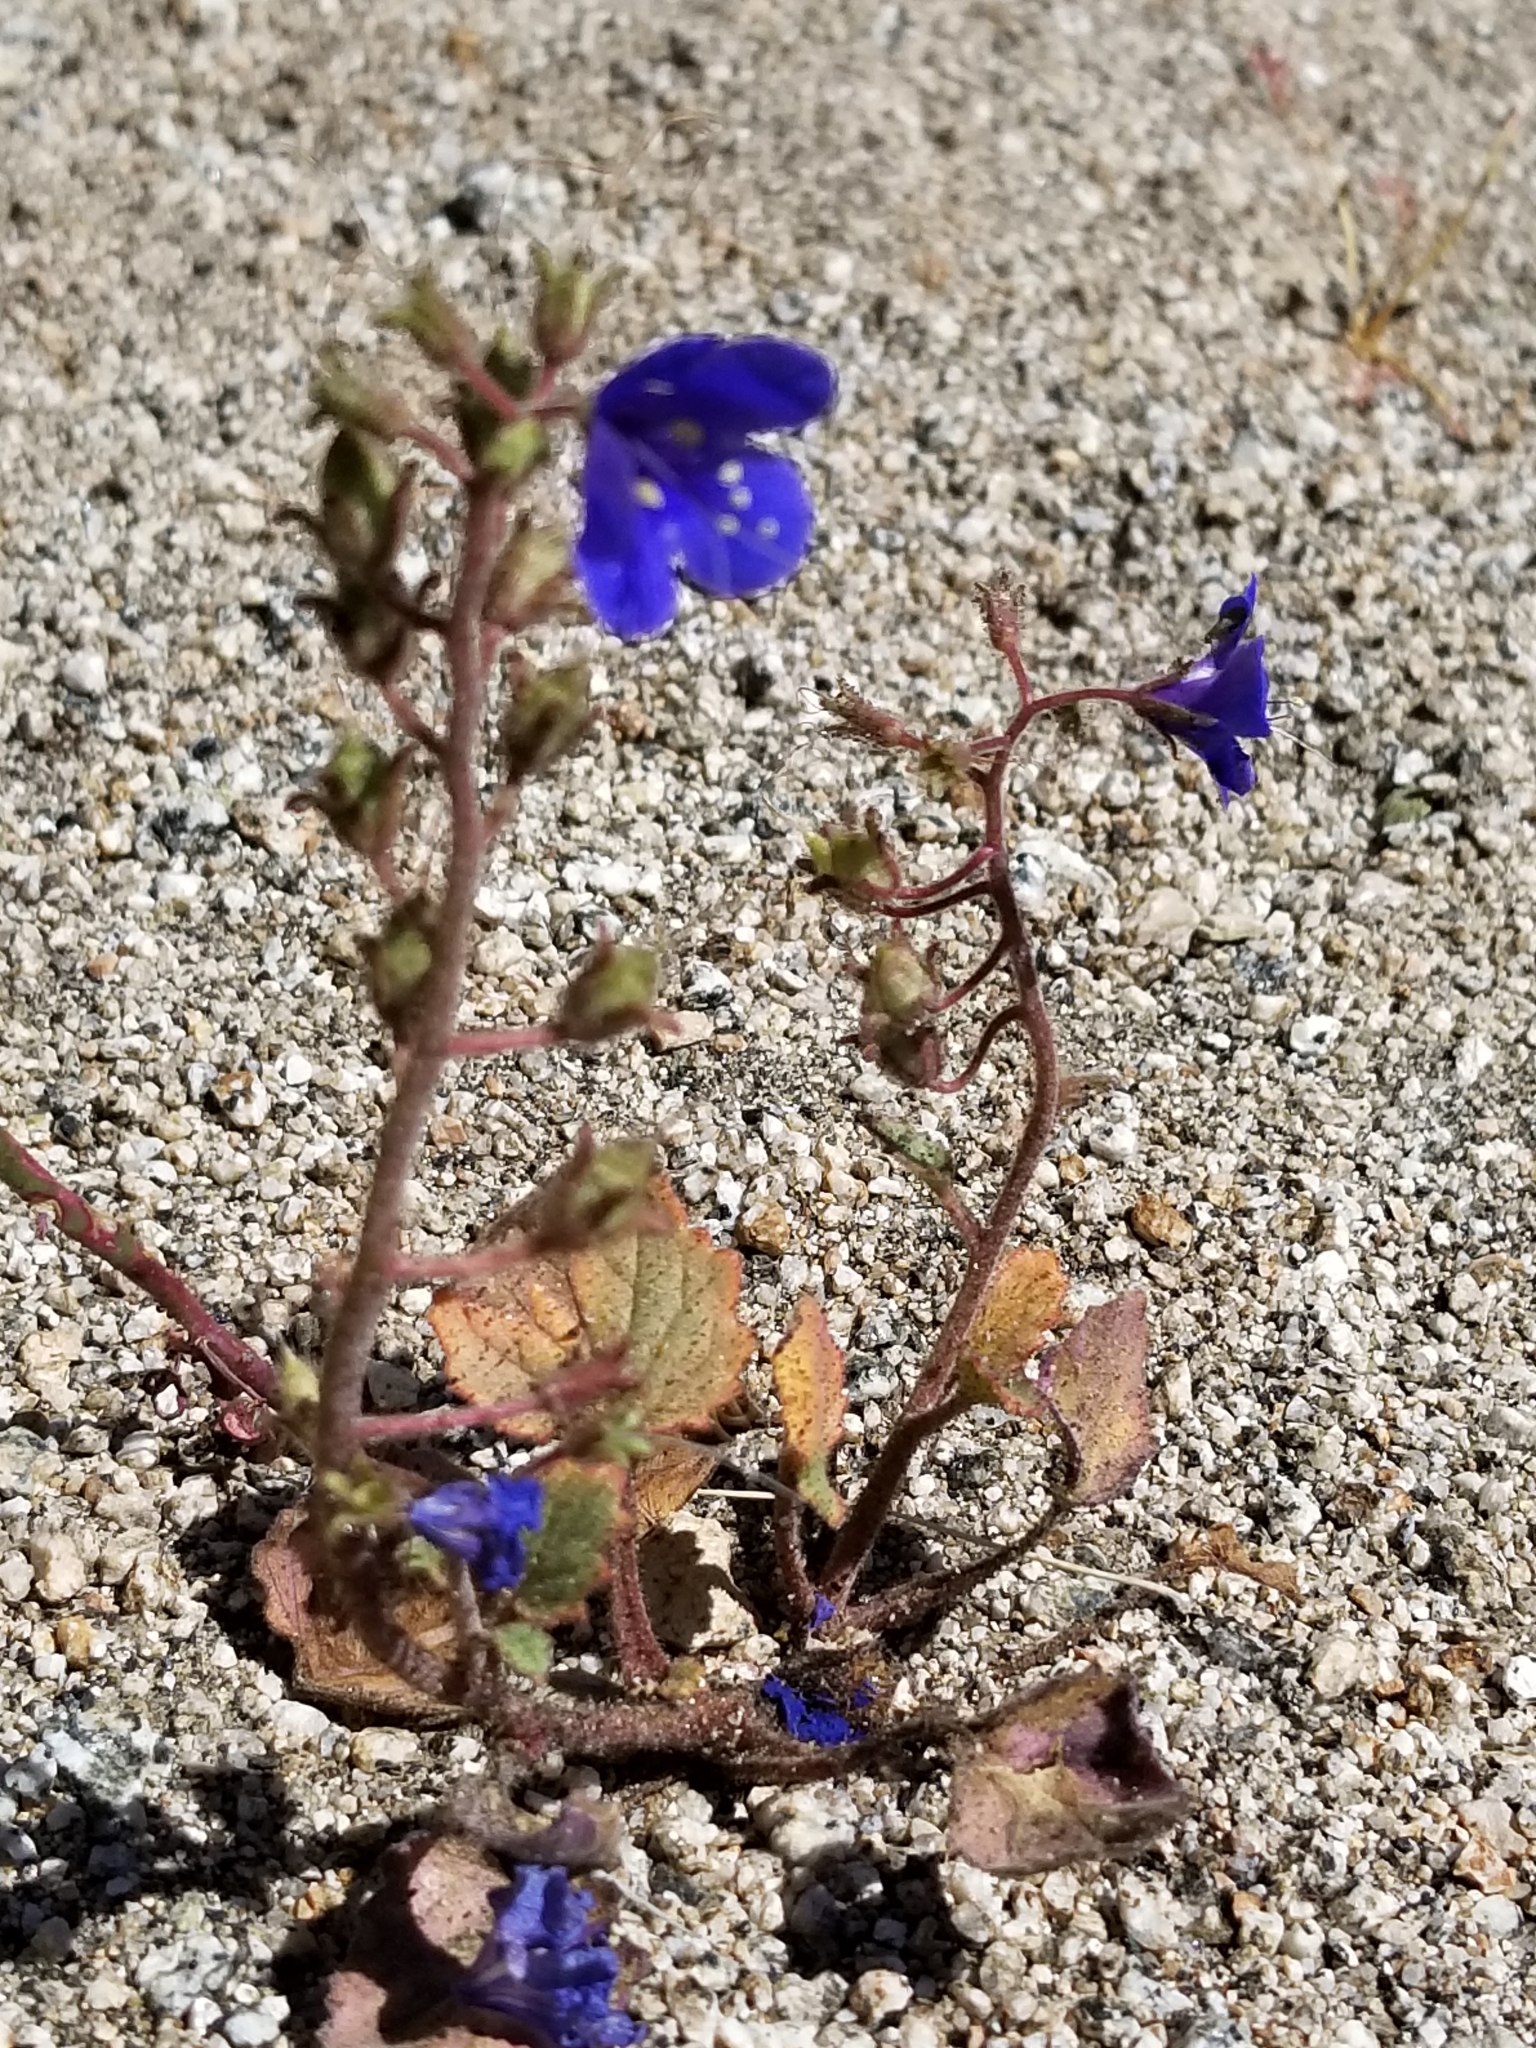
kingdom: Plantae
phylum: Tracheophyta
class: Magnoliopsida
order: Boraginales
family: Hydrophyllaceae
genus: Phacelia
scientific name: Phacelia campanularia
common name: California bluebell
